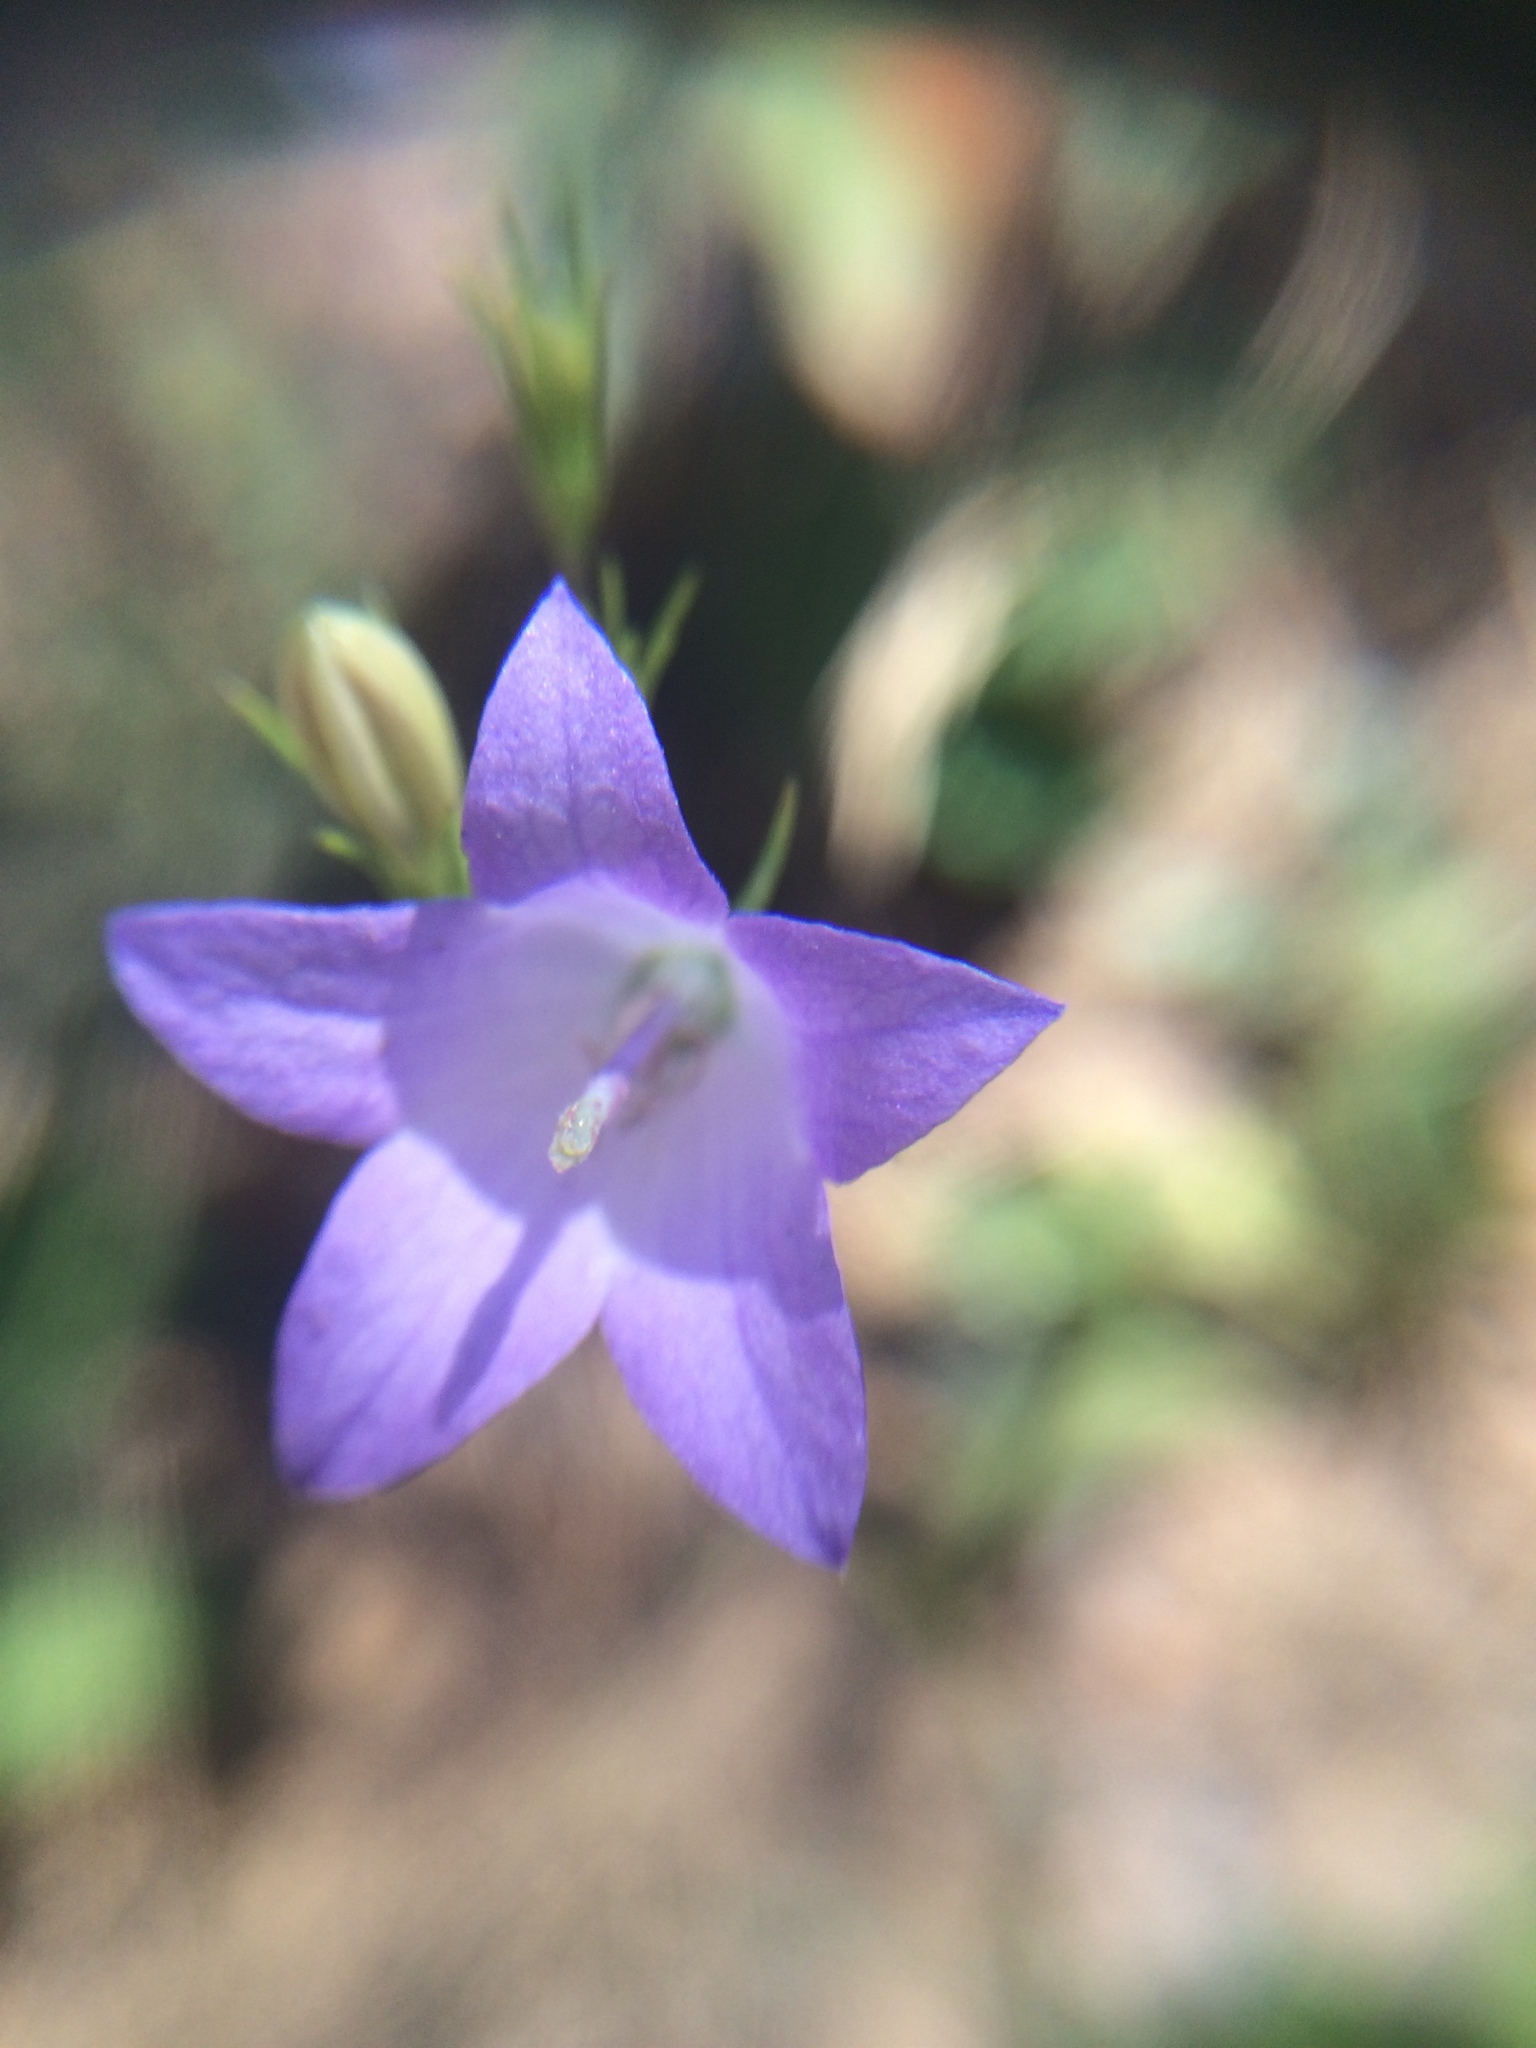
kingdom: Plantae
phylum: Tracheophyta
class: Magnoliopsida
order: Asterales
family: Campanulaceae
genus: Campanula
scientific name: Campanula petiolata
